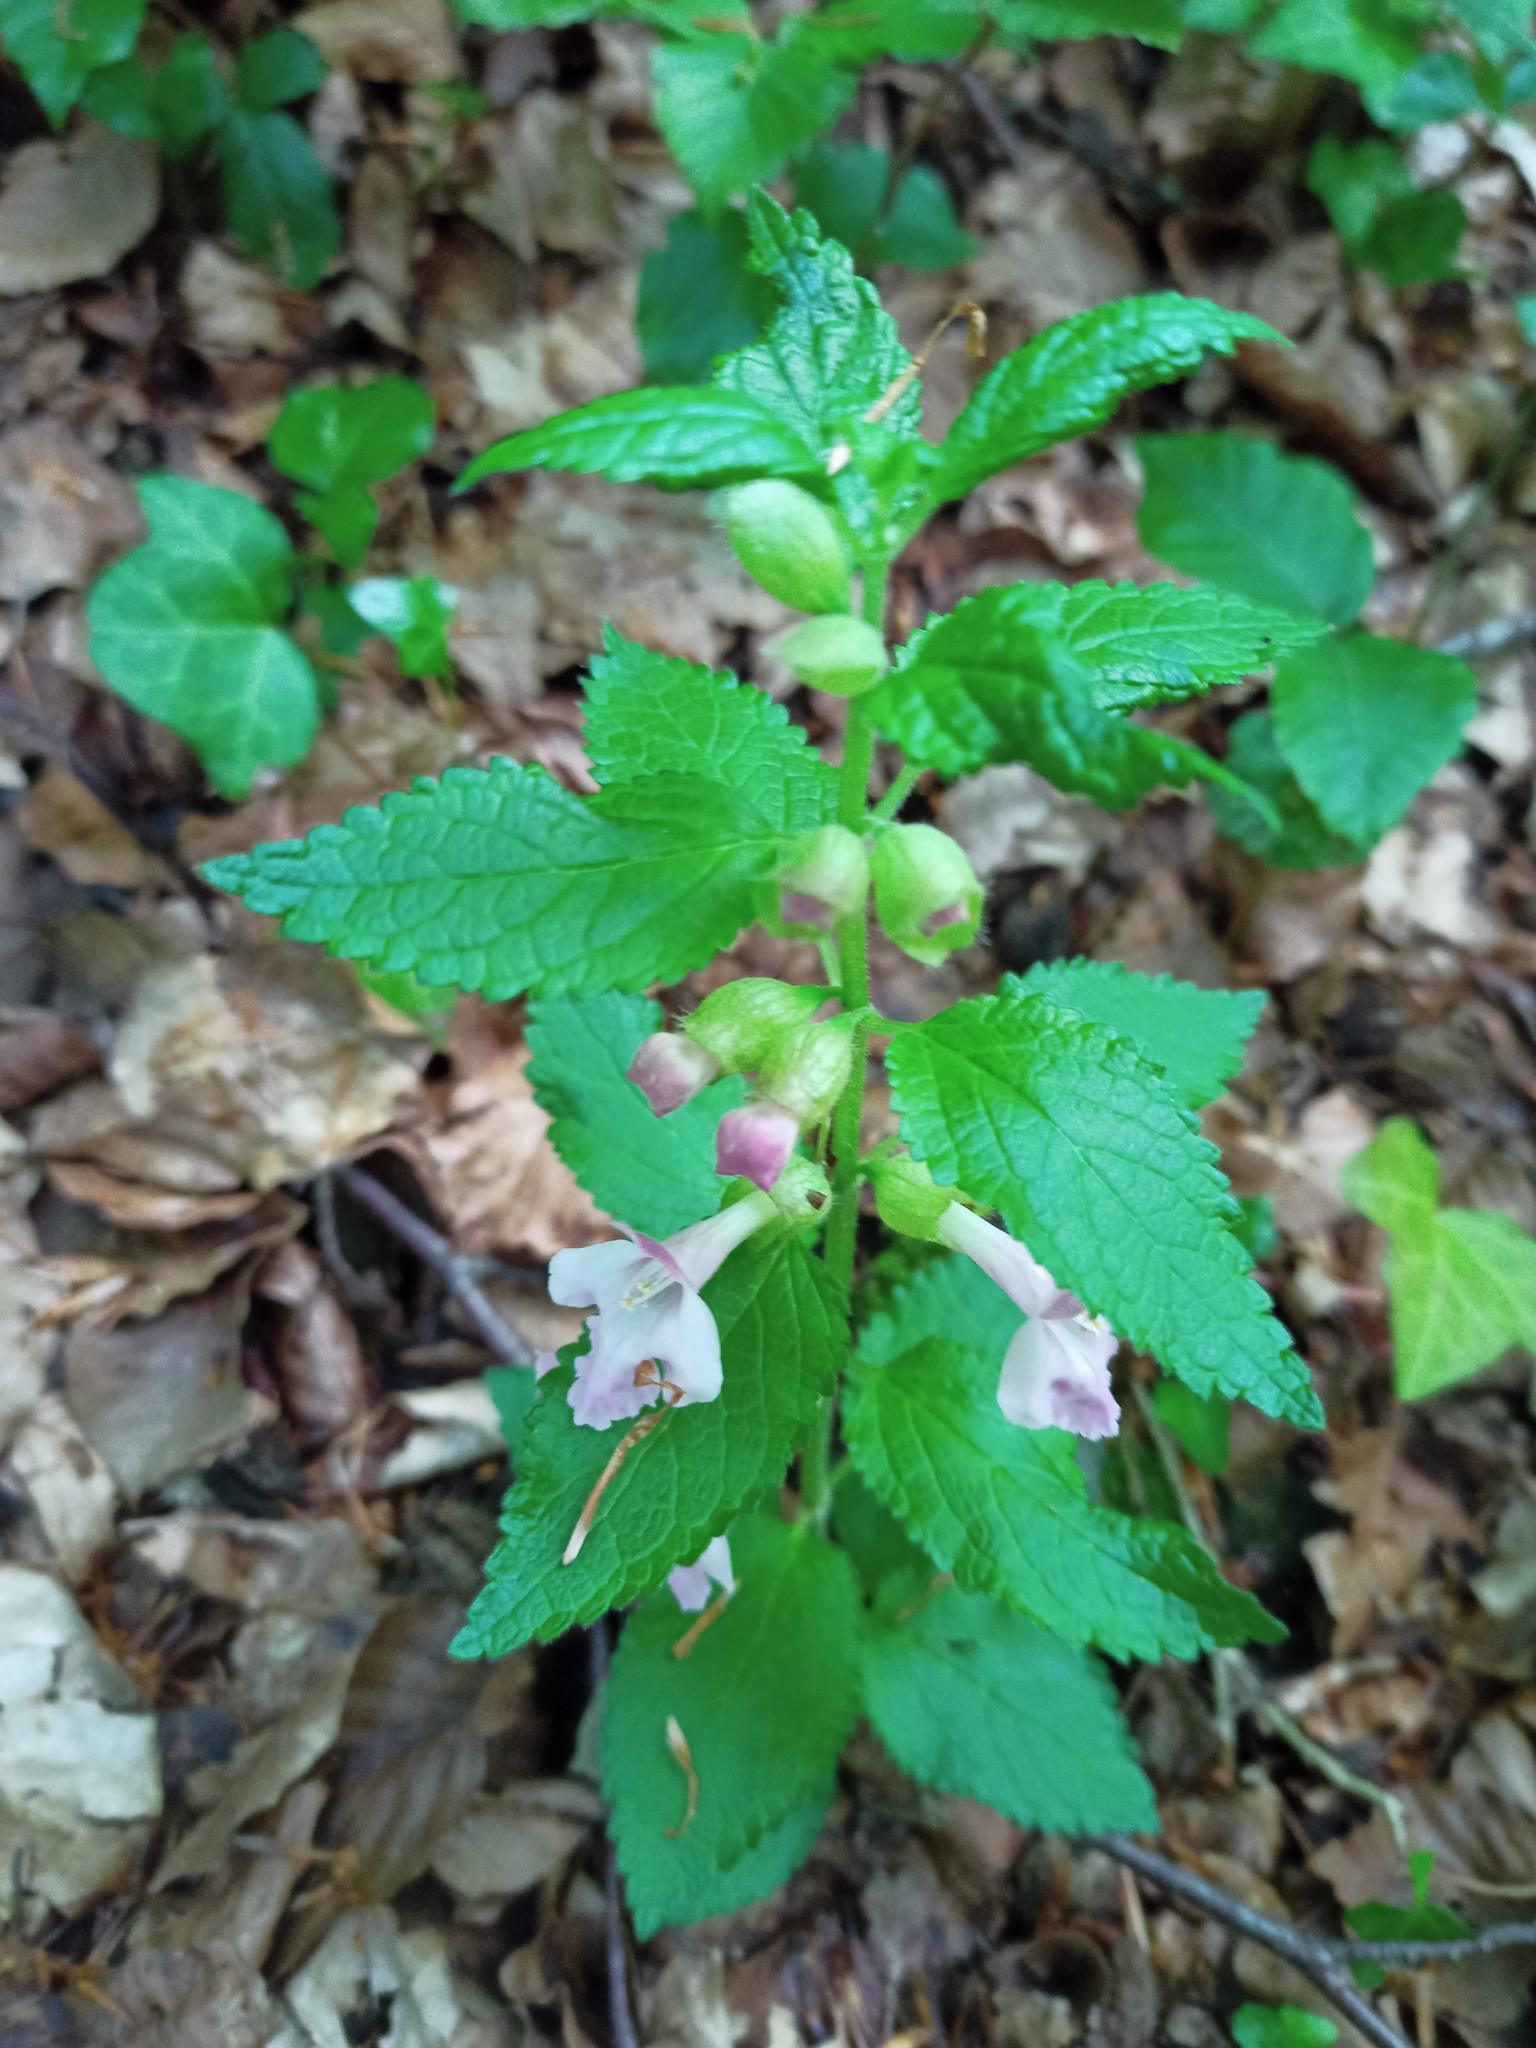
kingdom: Plantae
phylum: Tracheophyta
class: Magnoliopsida
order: Lamiales
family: Lamiaceae
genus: Melittis
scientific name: Melittis melissophyllum
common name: Bastard balm
